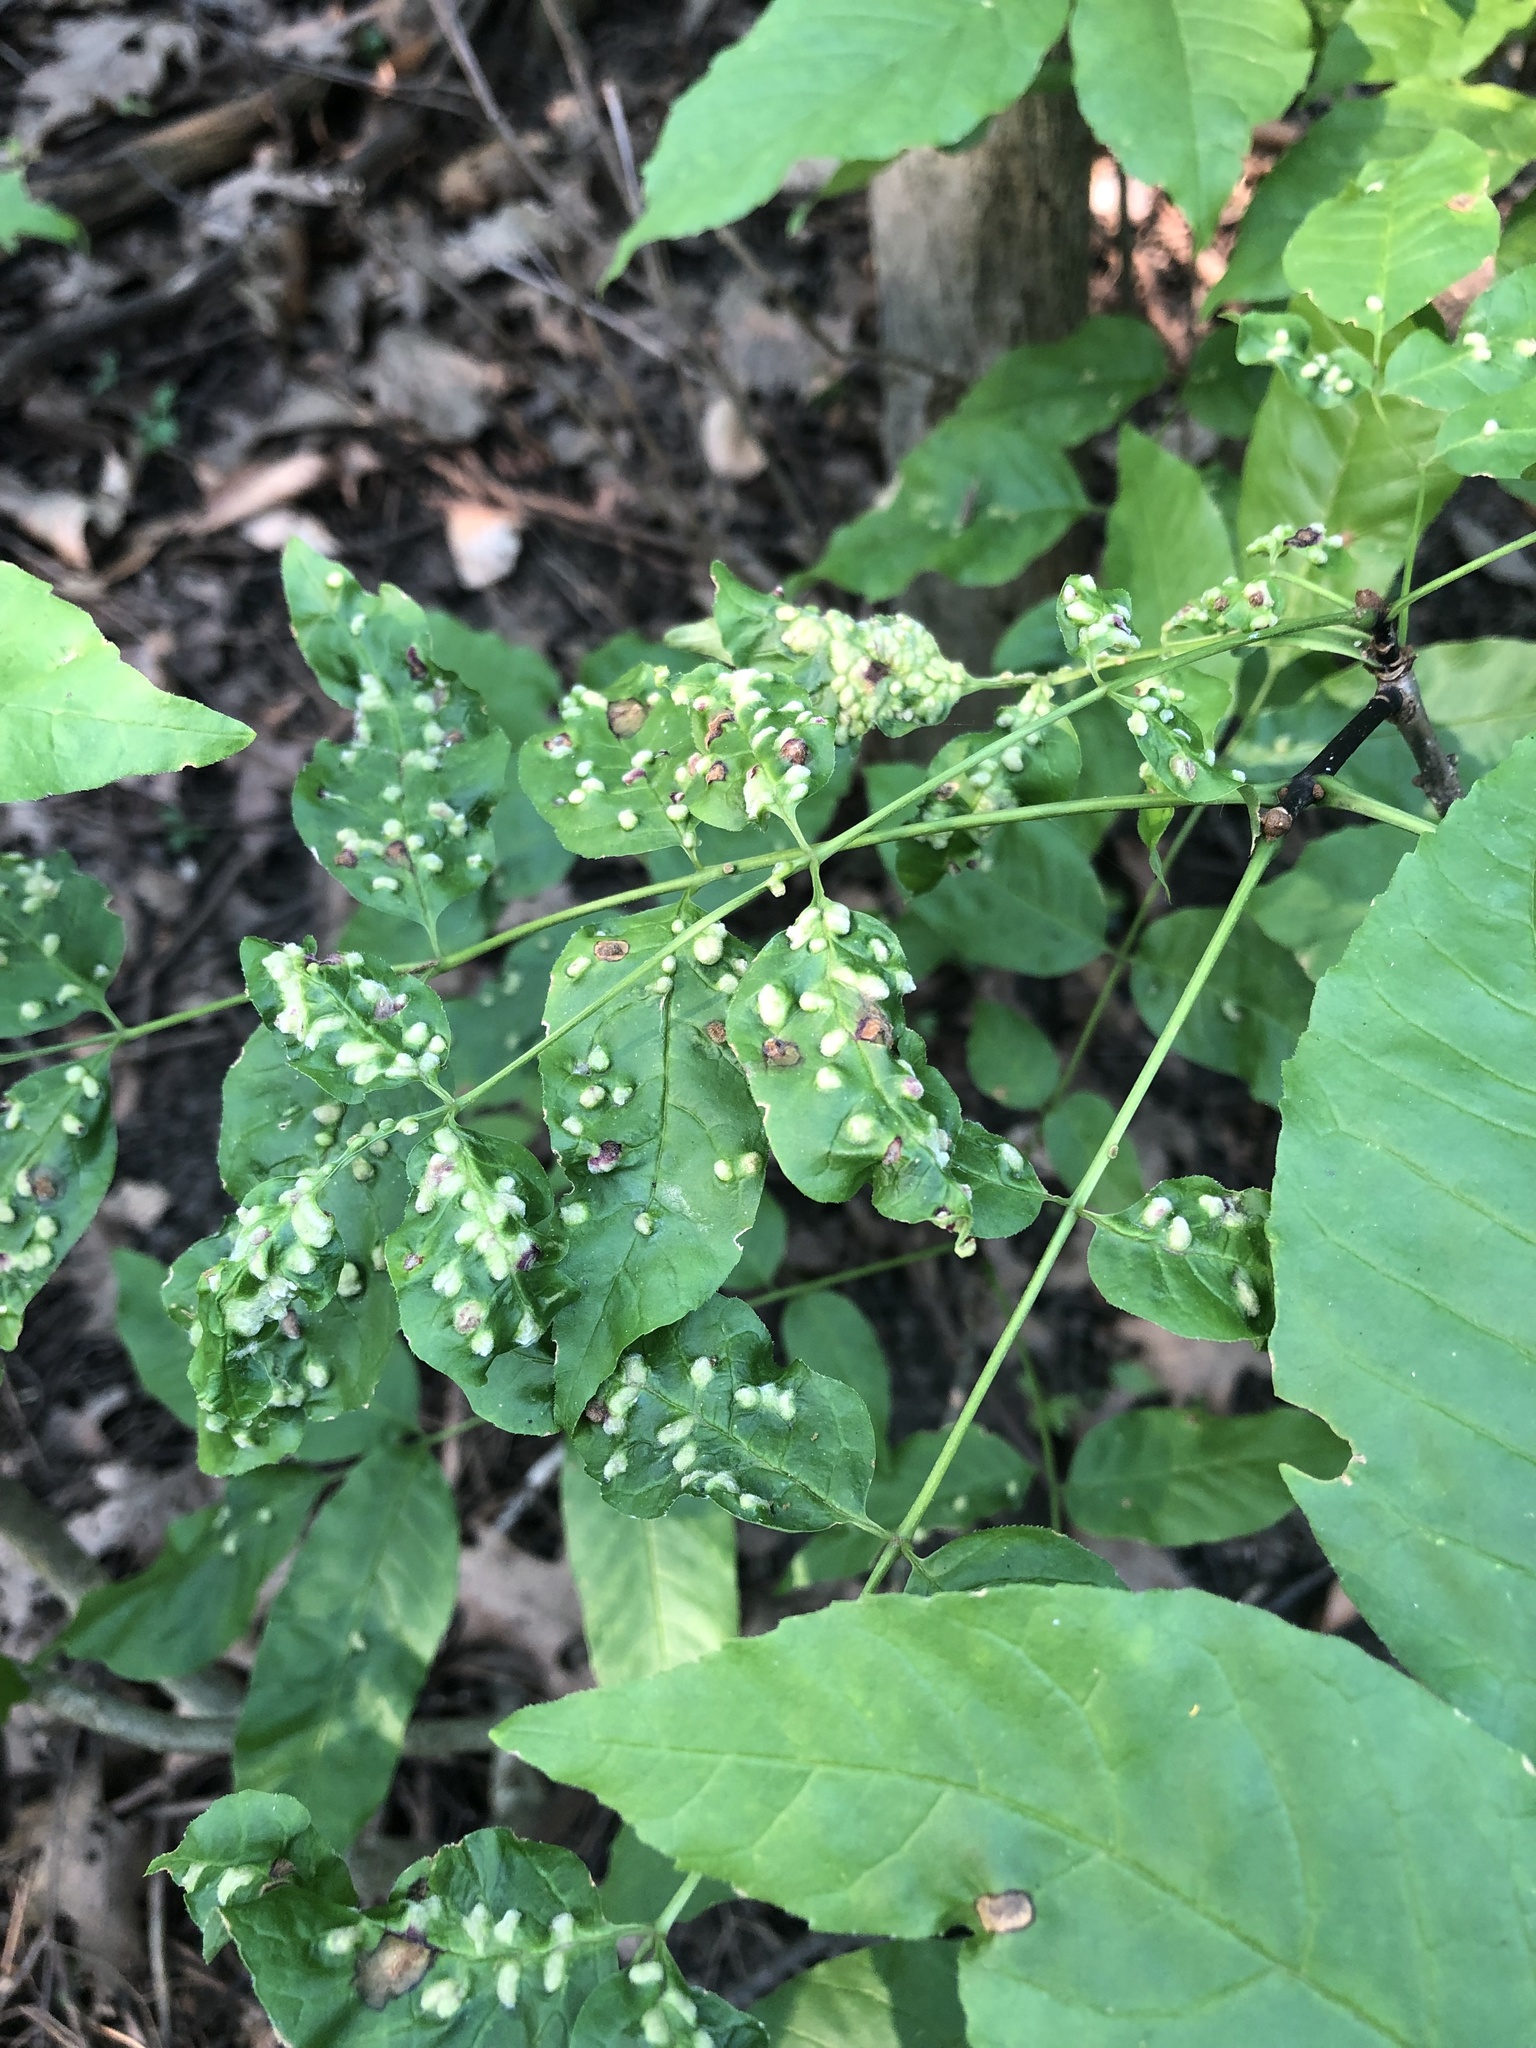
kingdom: Animalia
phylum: Arthropoda
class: Arachnida
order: Trombidiformes
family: Eriophyidae
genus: Aceria
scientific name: Aceria fraxinicola
